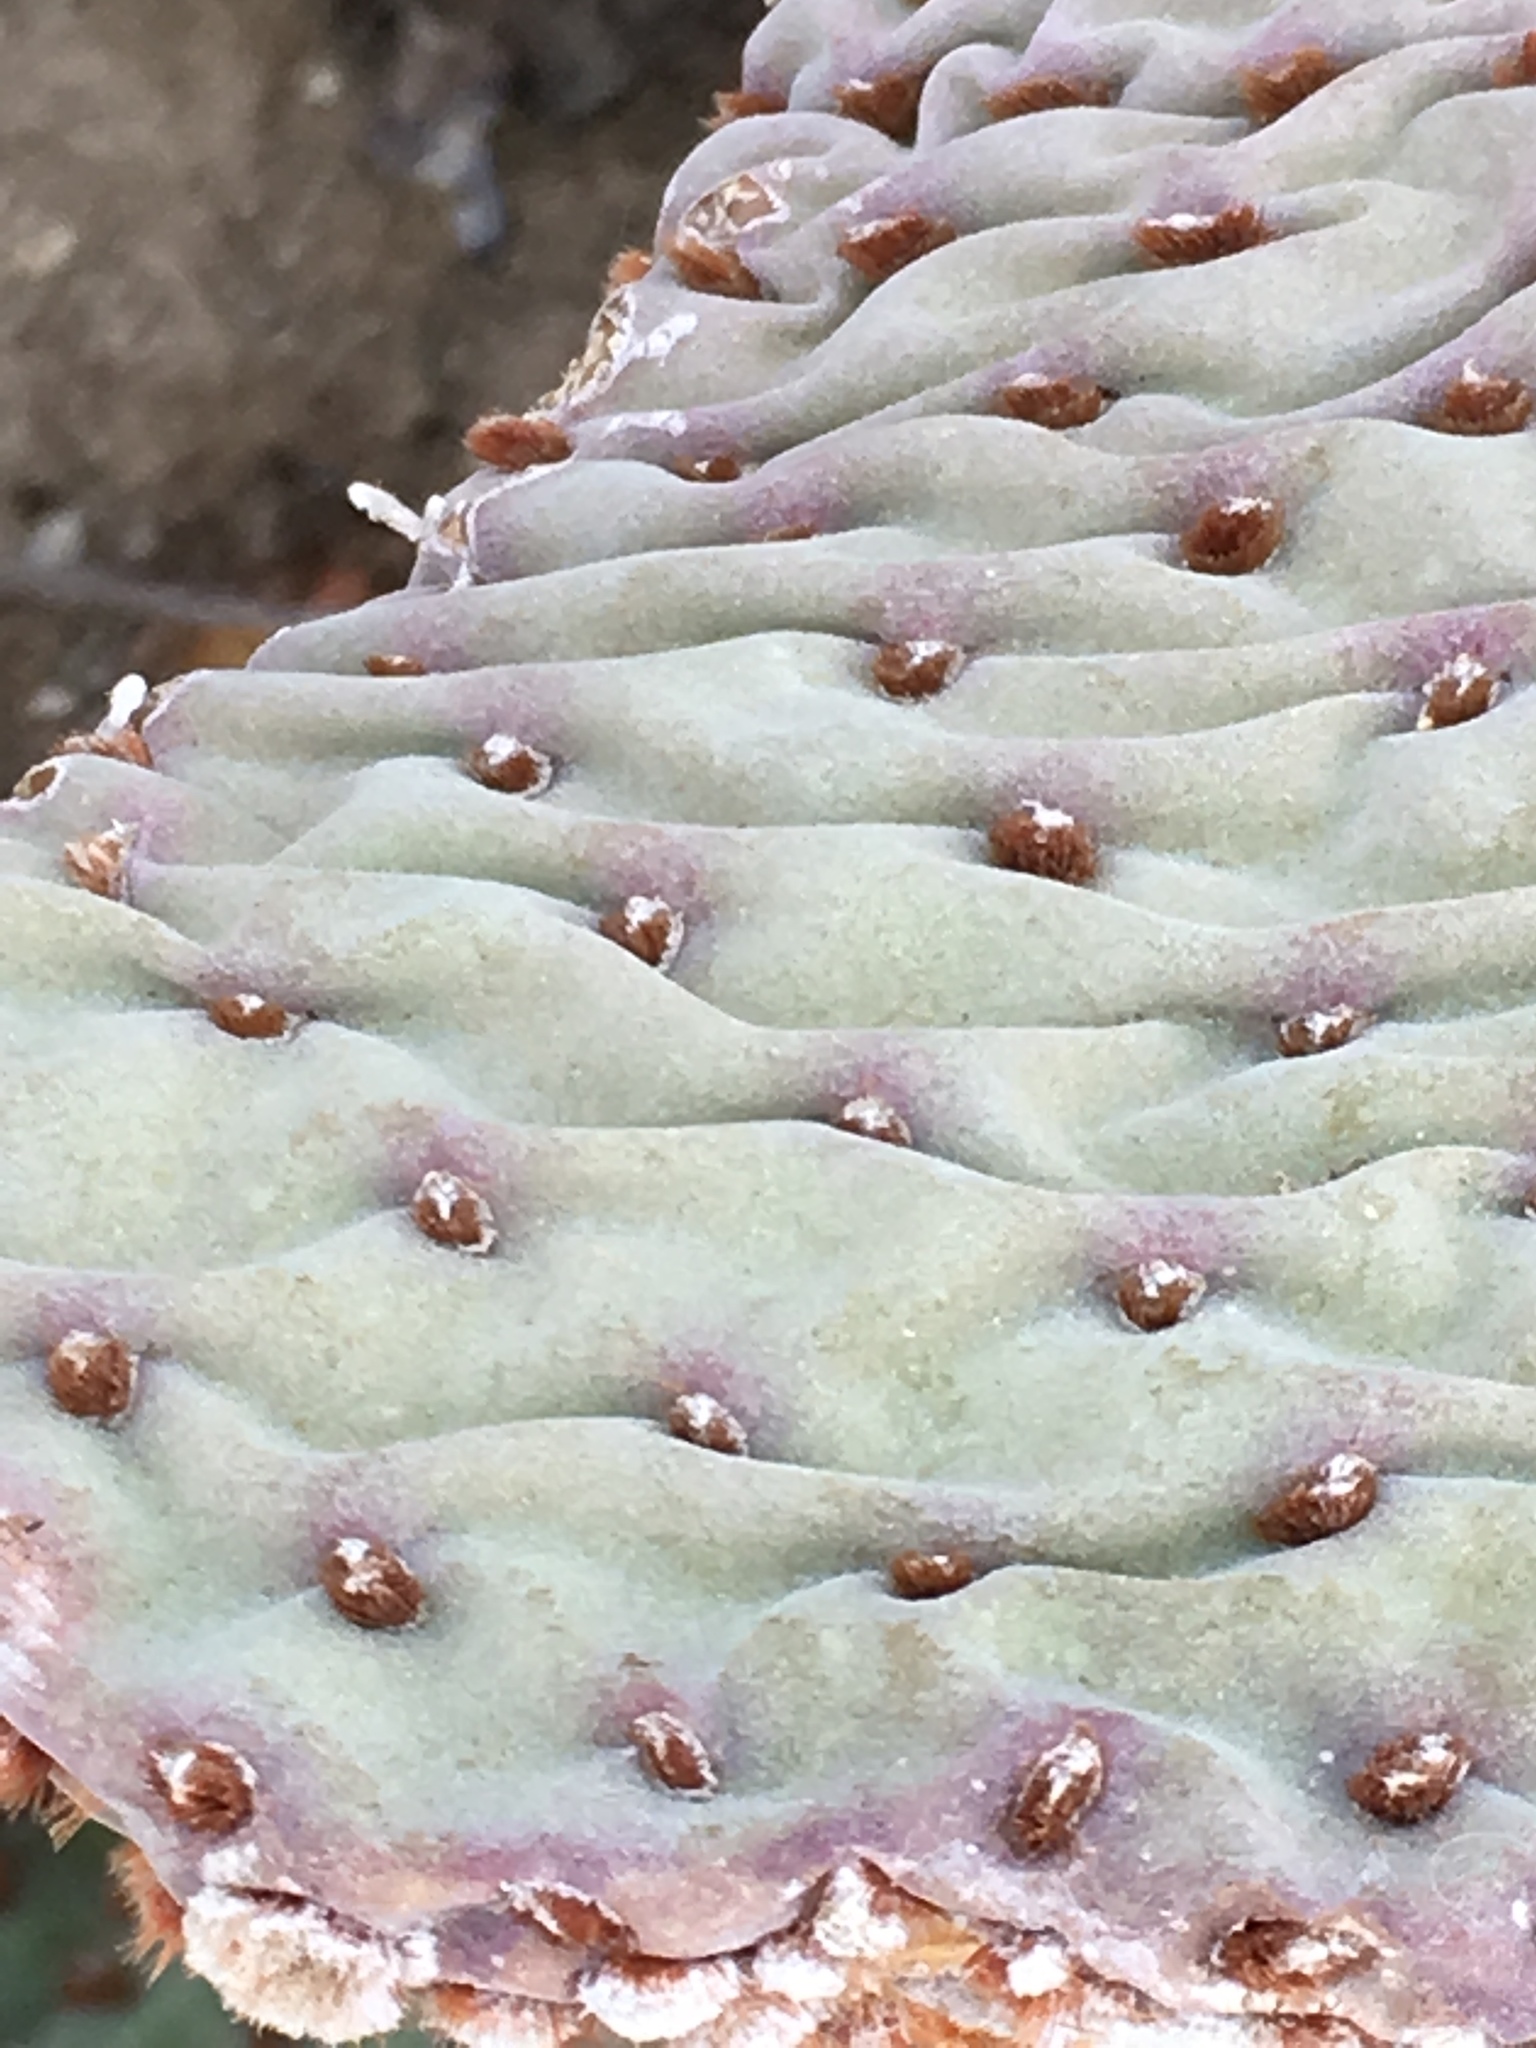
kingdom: Plantae
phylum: Tracheophyta
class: Magnoliopsida
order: Caryophyllales
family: Cactaceae
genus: Opuntia
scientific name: Opuntia basilaris
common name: Beavertail prickly-pear
